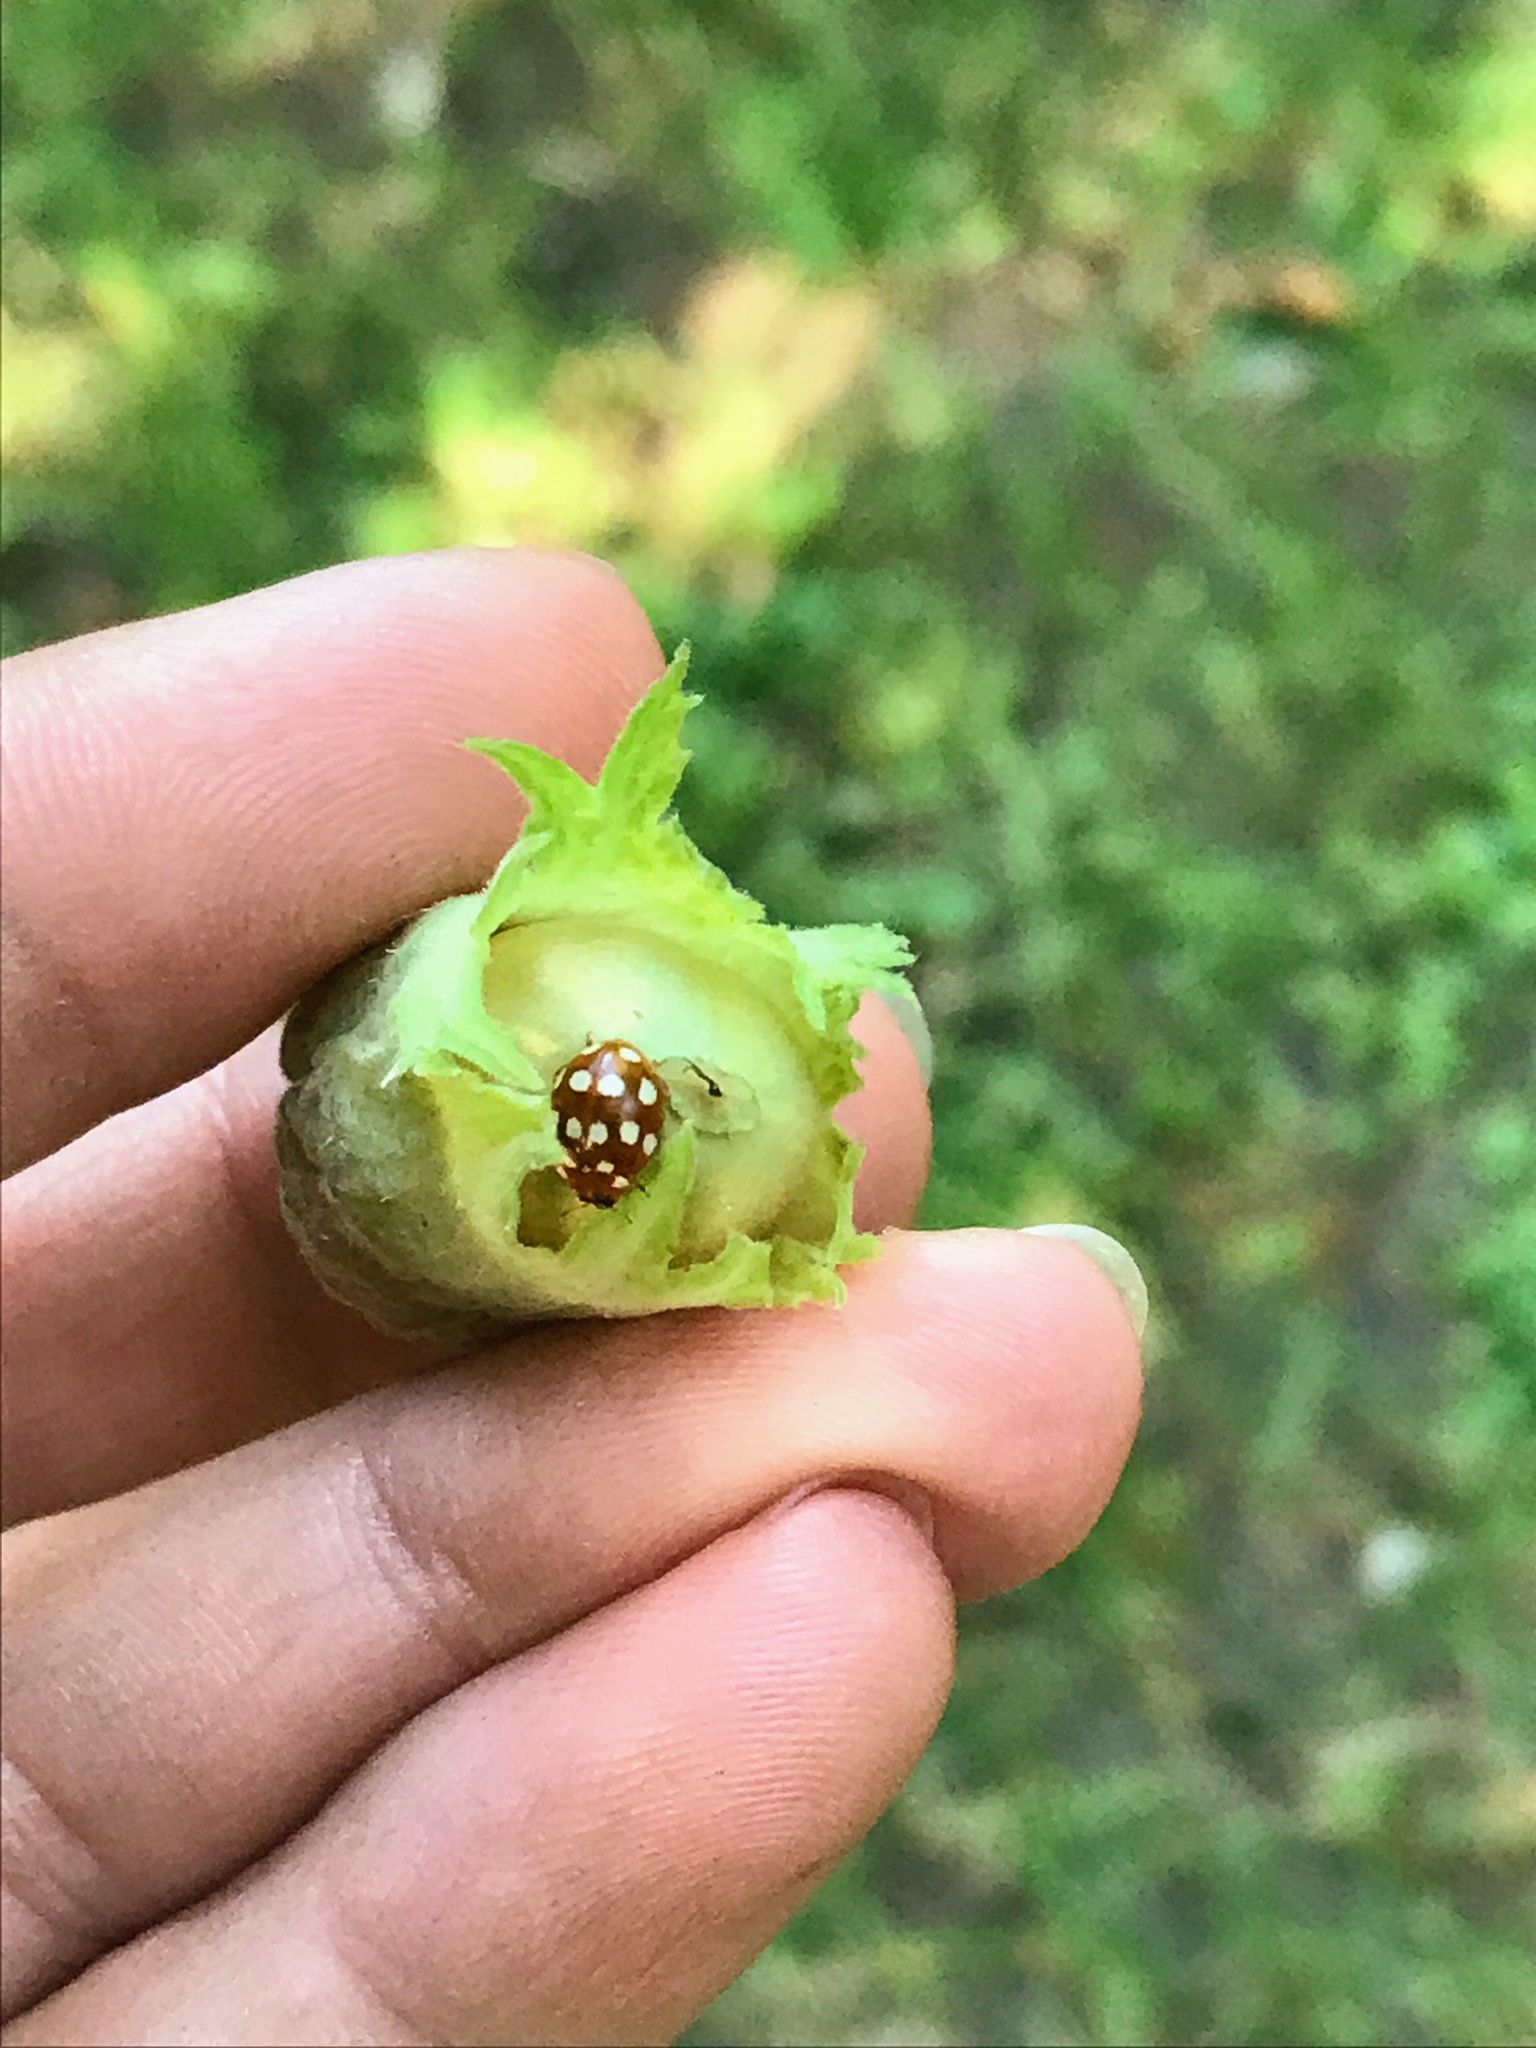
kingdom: Animalia
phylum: Arthropoda
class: Insecta
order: Coleoptera
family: Coccinellidae
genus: Calvia
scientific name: Calvia quatuordecimguttata
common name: Cream-spot ladybird
